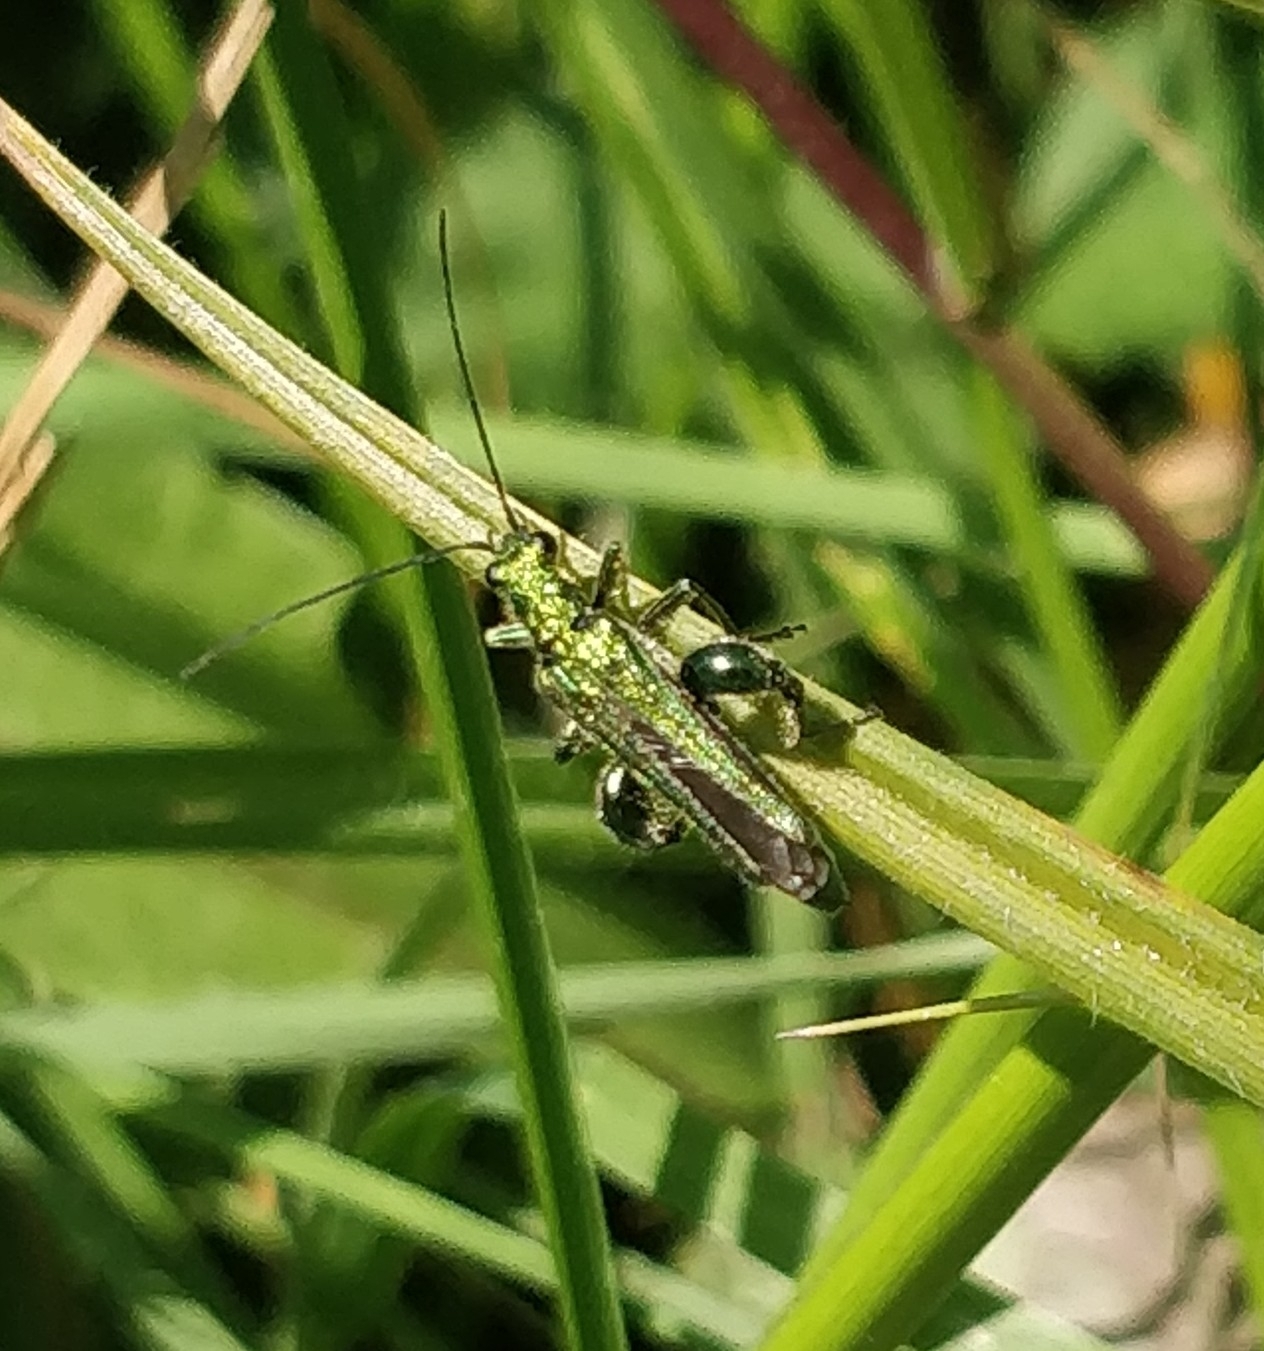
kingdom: Animalia
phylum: Arthropoda
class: Insecta
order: Coleoptera
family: Oedemeridae
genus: Oedemera
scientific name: Oedemera nobilis
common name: Swollen-thighed beetle
